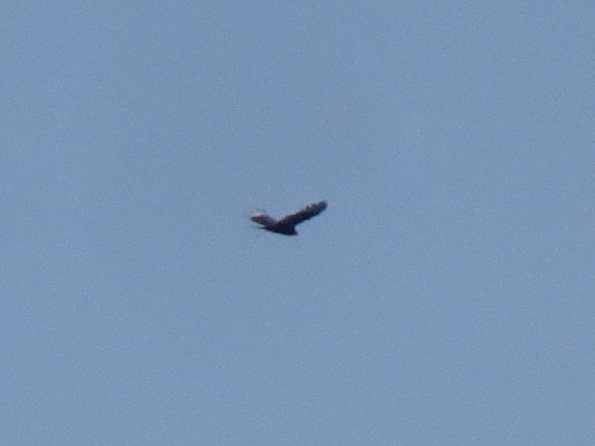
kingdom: Animalia
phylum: Chordata
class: Aves
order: Accipitriformes
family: Cathartidae
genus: Cathartes
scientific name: Cathartes aura
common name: Turkey vulture
